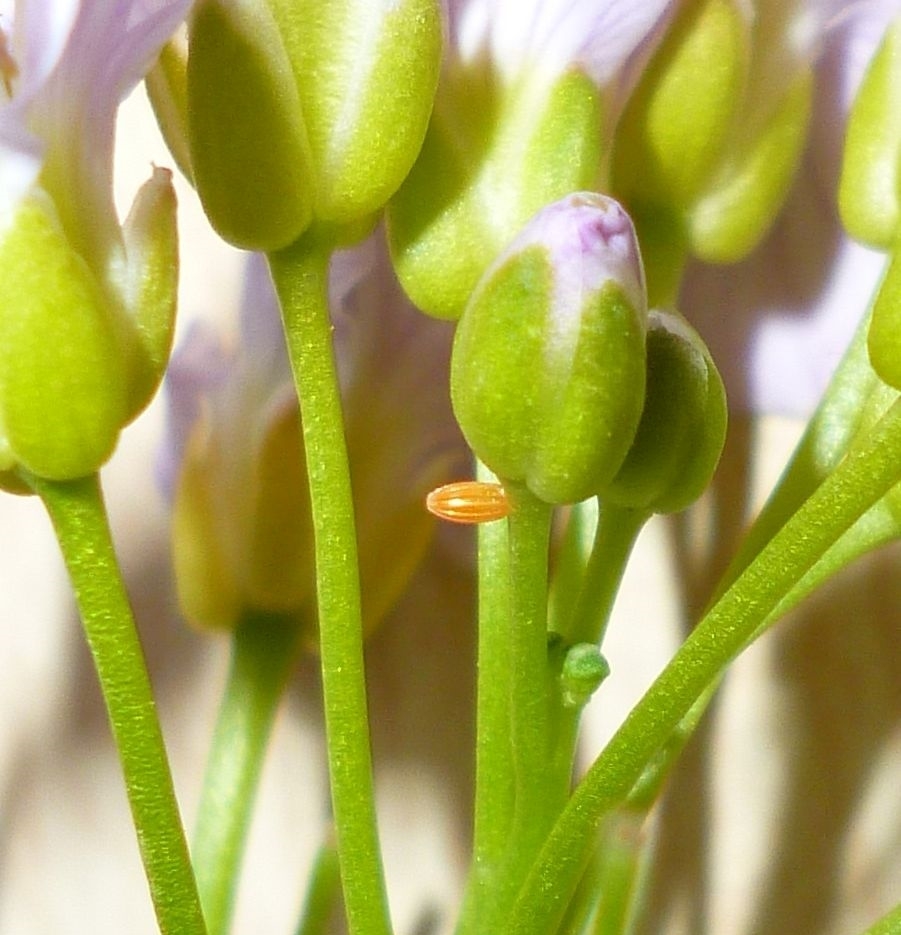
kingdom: Animalia
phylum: Arthropoda
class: Insecta
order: Lepidoptera
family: Pieridae
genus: Anthocharis
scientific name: Anthocharis cardamines
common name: Orange-tip
